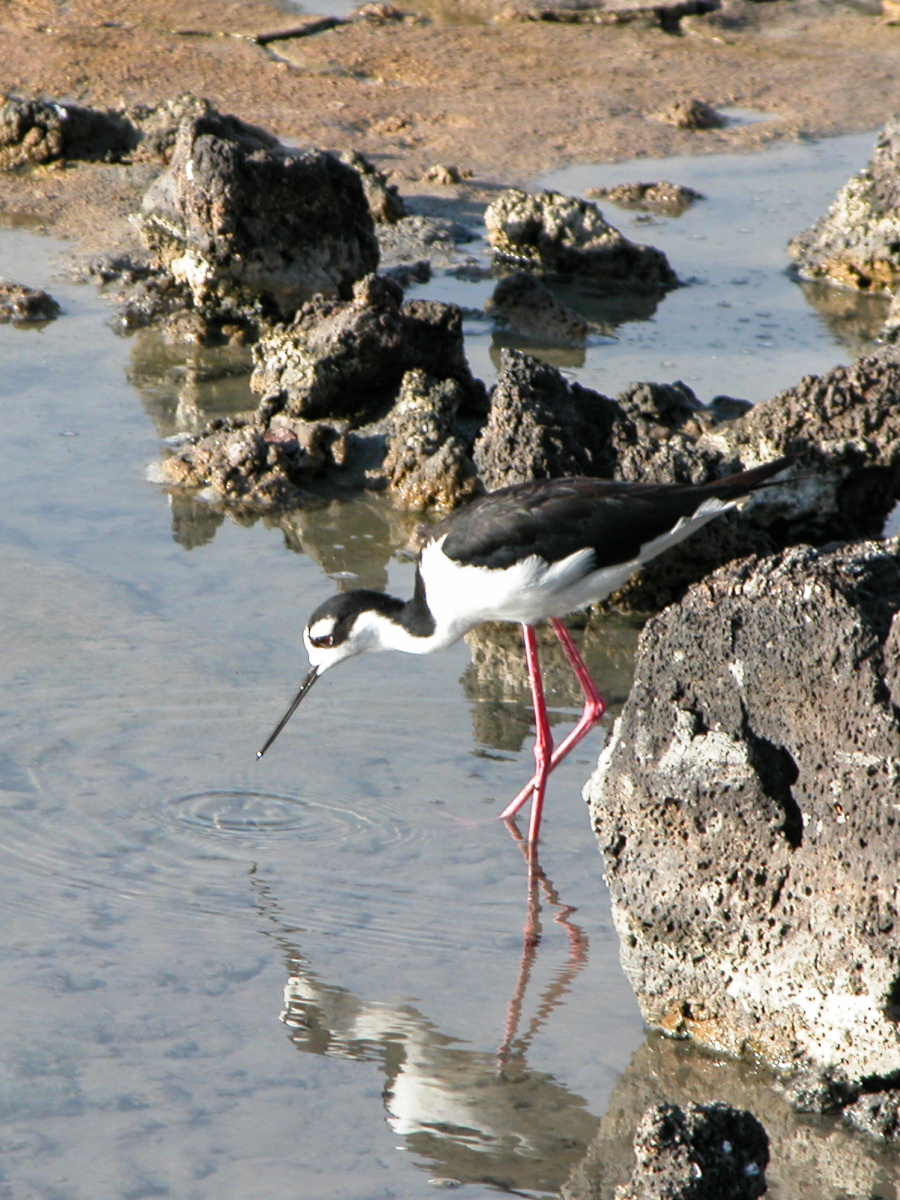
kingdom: Animalia
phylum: Chordata
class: Aves
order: Charadriiformes
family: Recurvirostridae
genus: Himantopus
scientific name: Himantopus mexicanus
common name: Black-necked stilt
